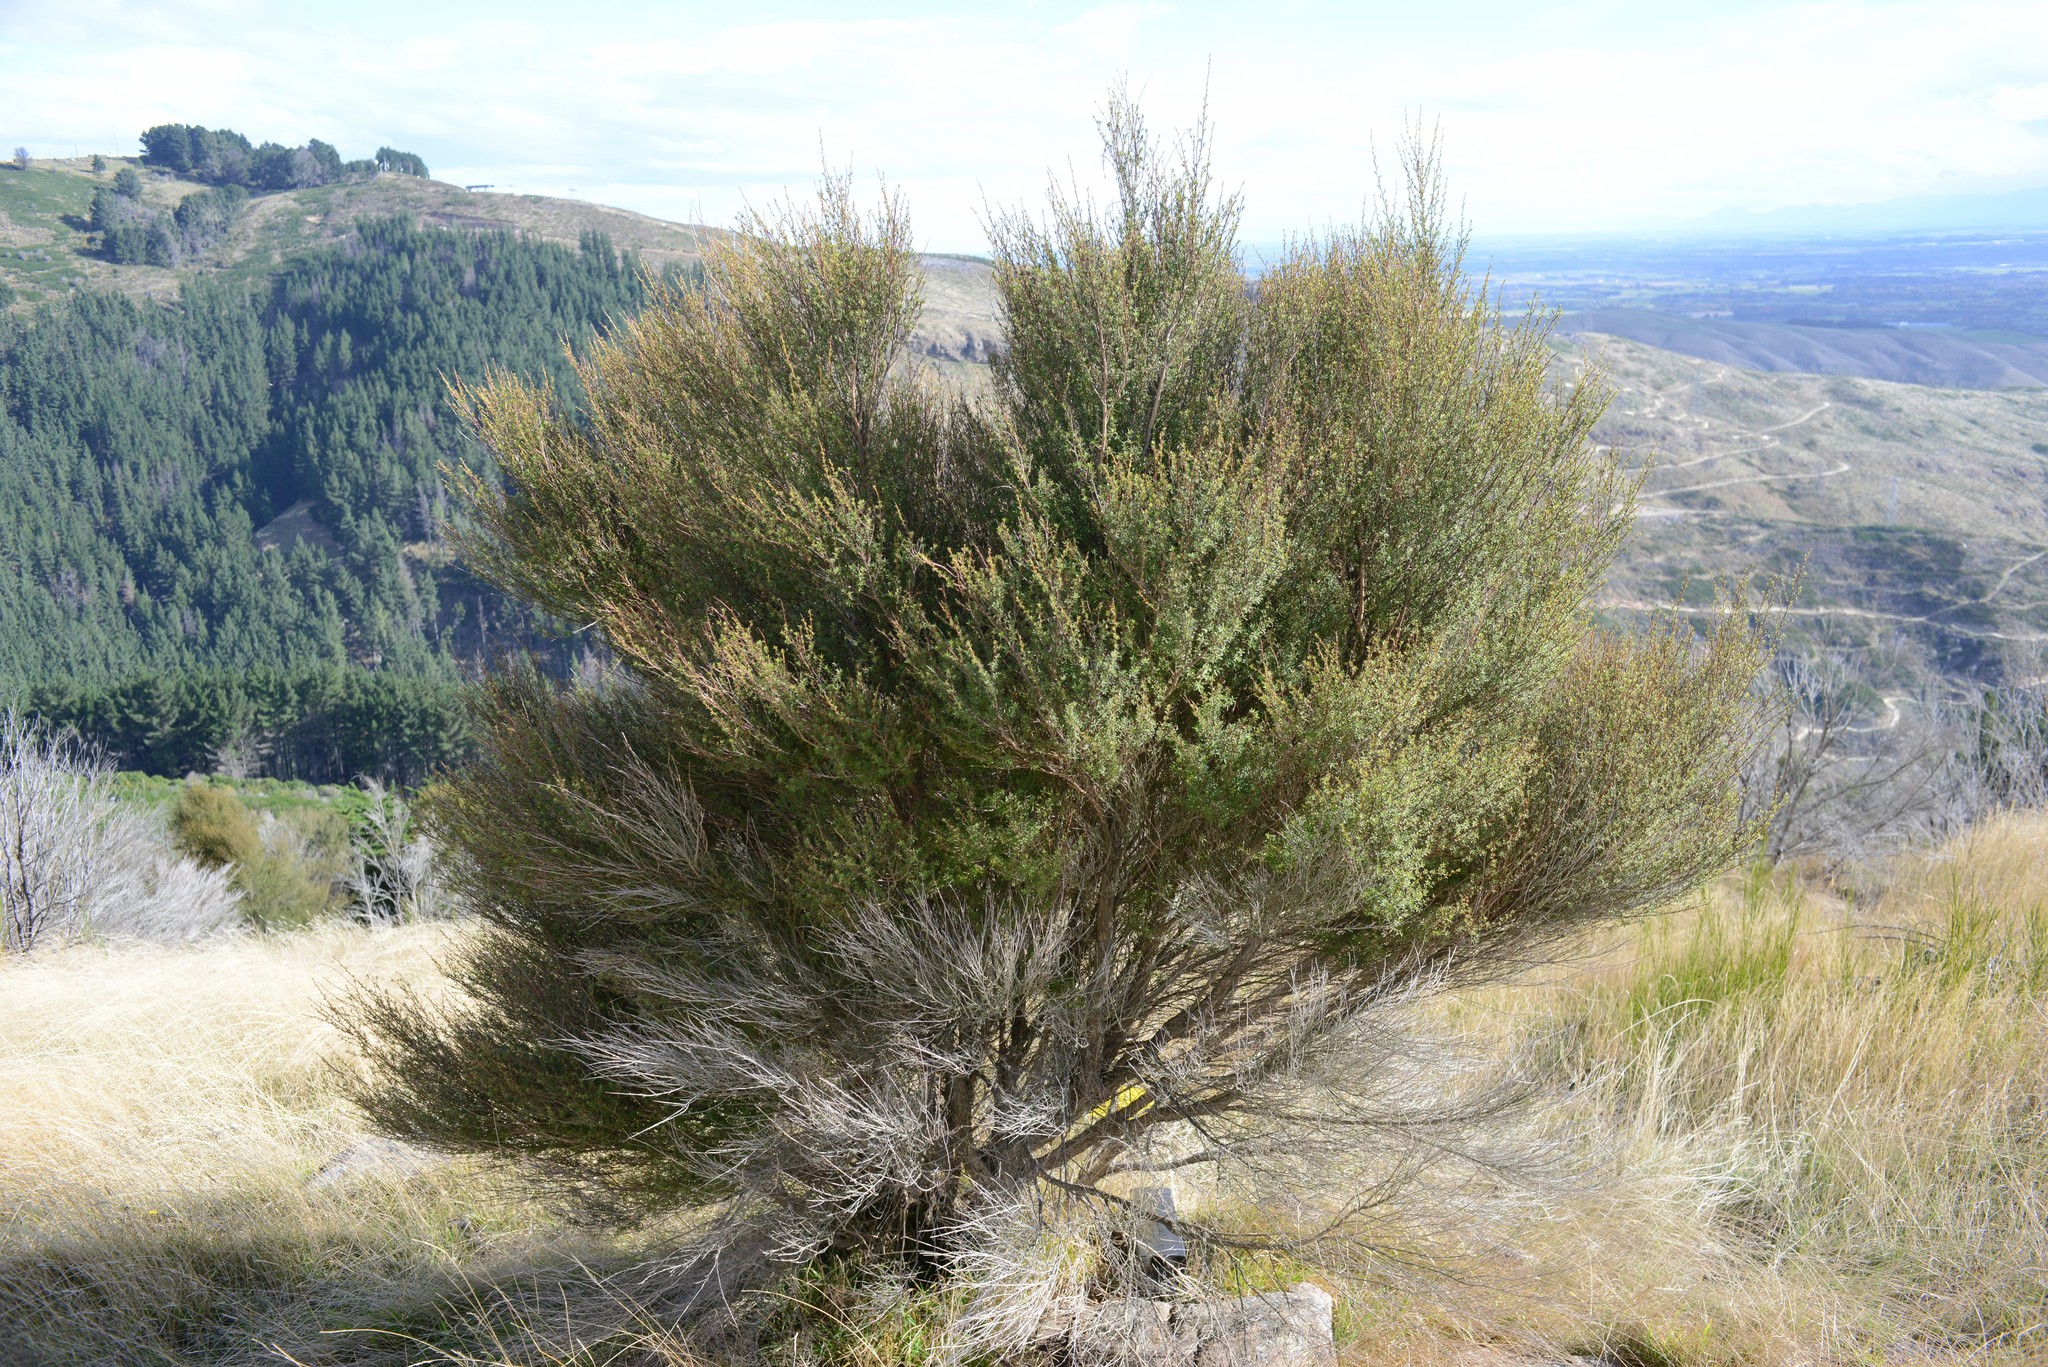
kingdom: Plantae
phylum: Tracheophyta
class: Magnoliopsida
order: Myrtales
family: Myrtaceae
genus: Kunzea
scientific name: Kunzea robusta
